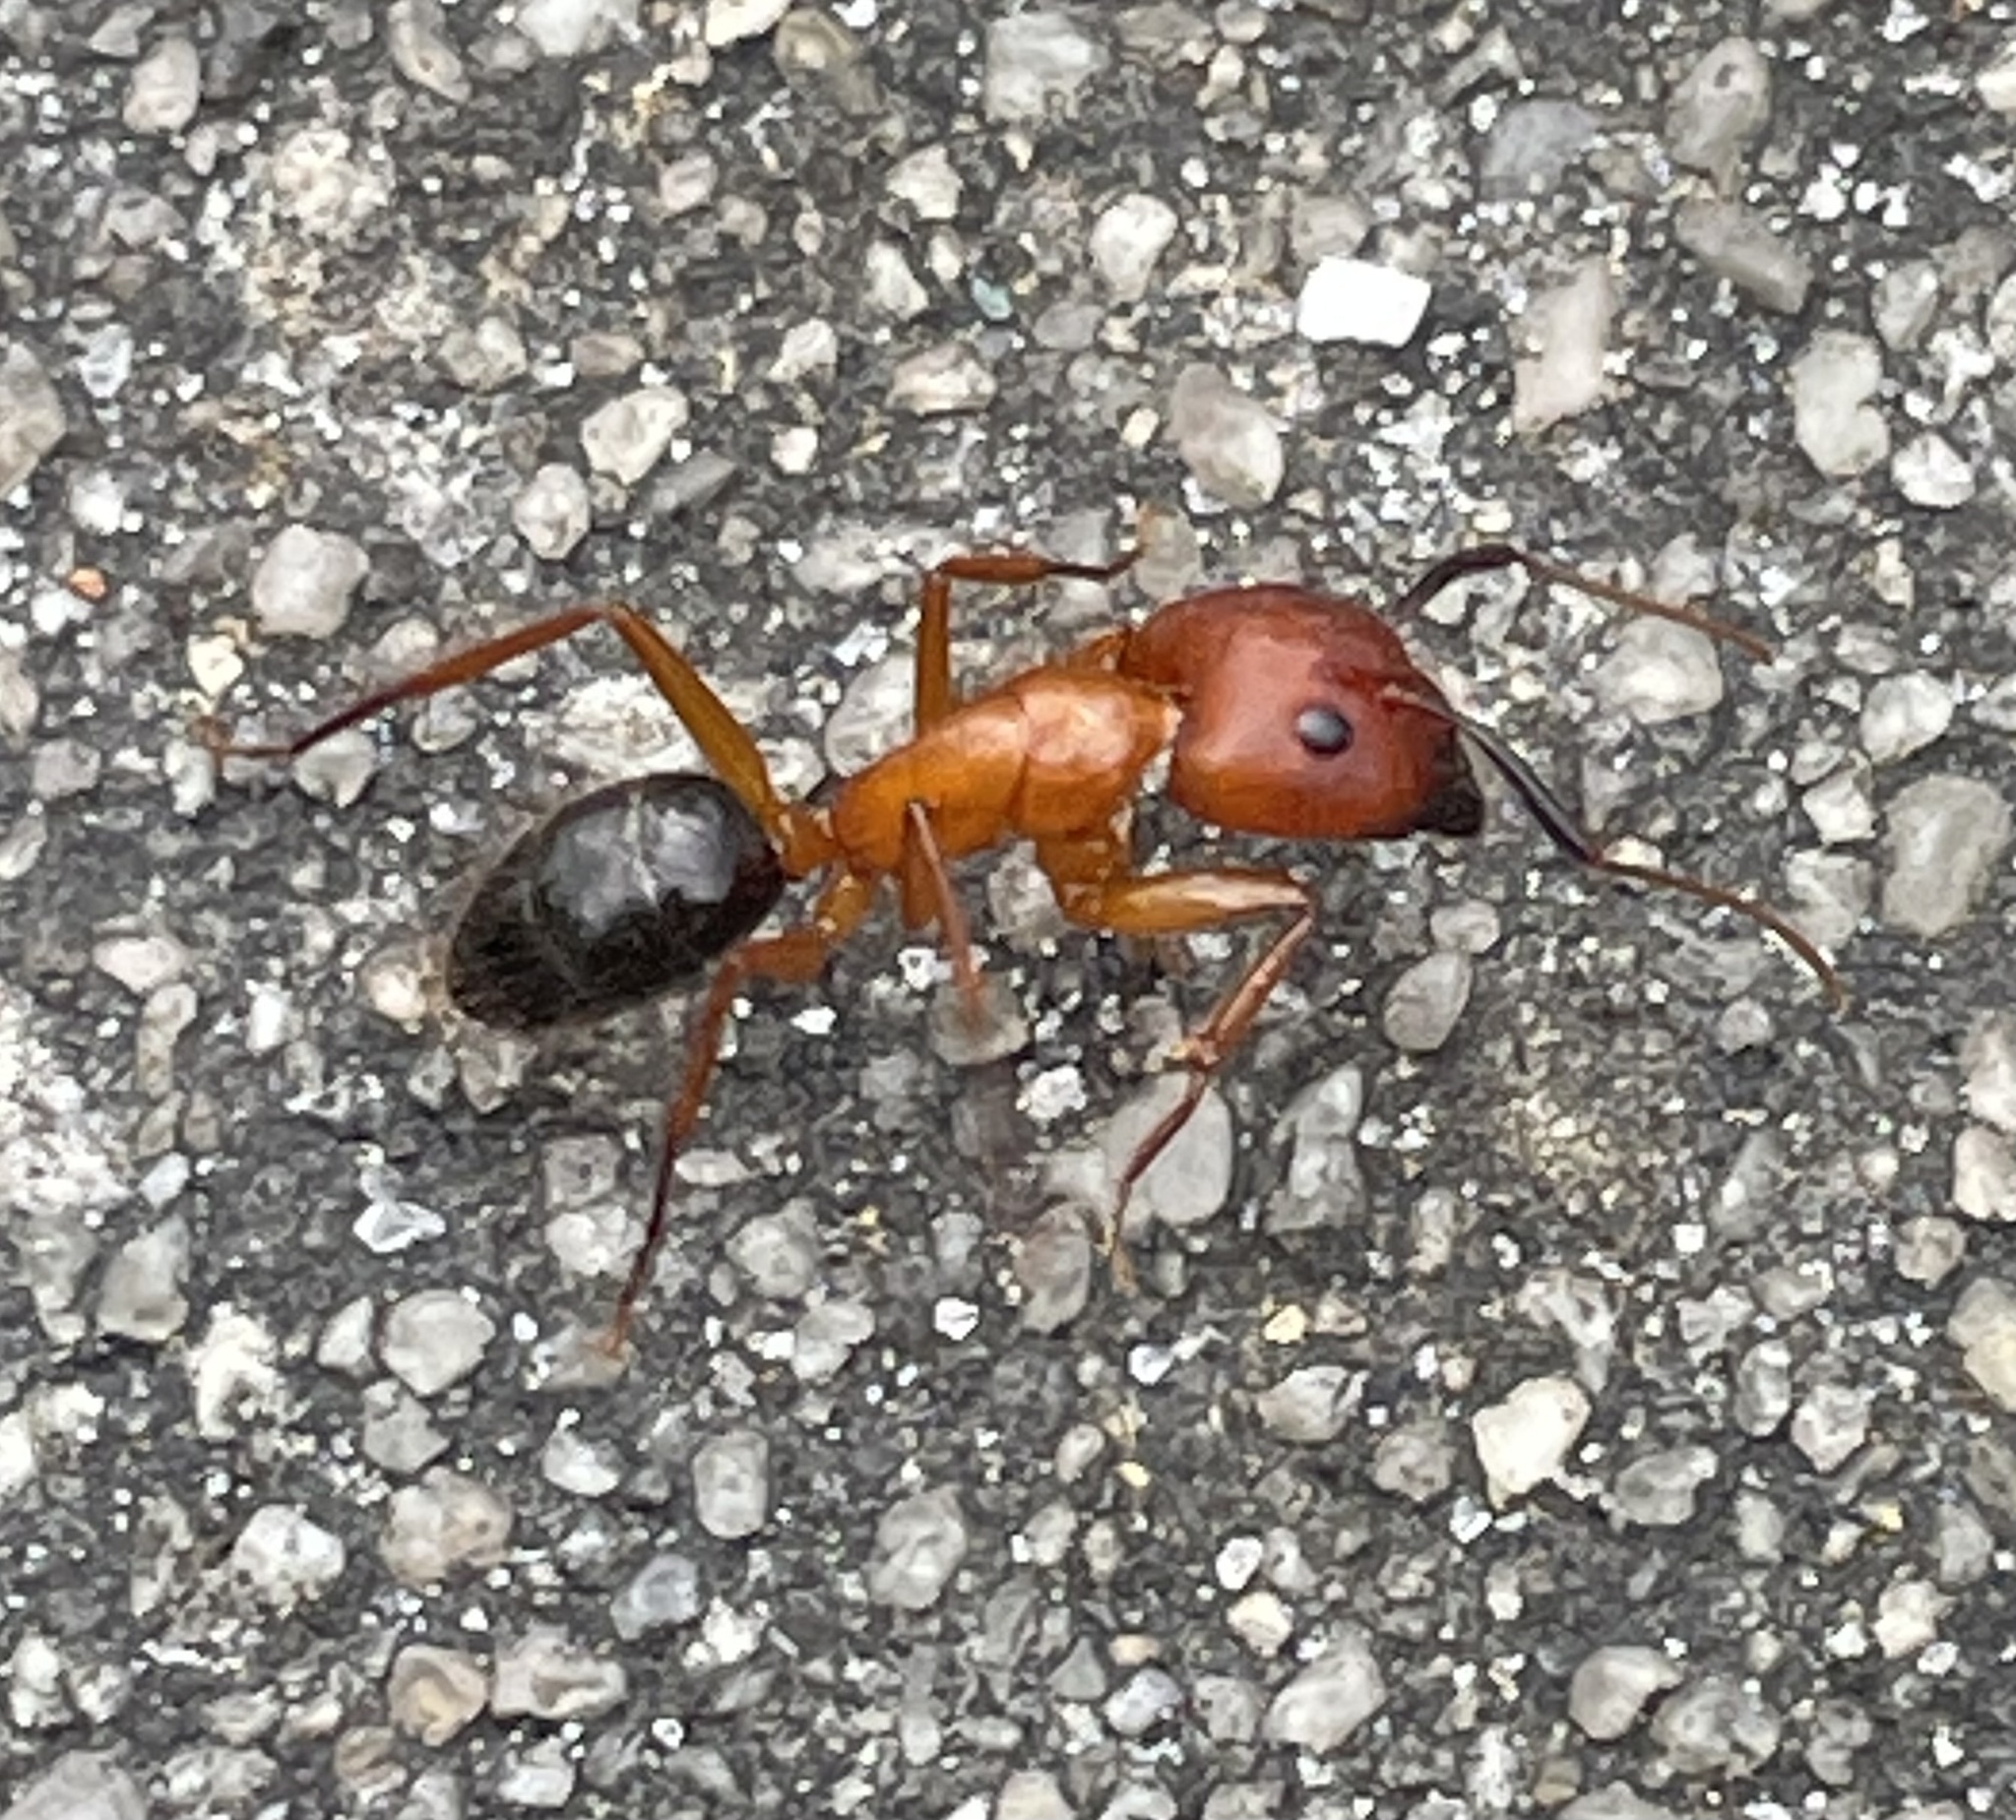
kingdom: Animalia
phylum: Arthropoda
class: Insecta
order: Hymenoptera
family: Formicidae
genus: Camponotus
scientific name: Camponotus floridanus
